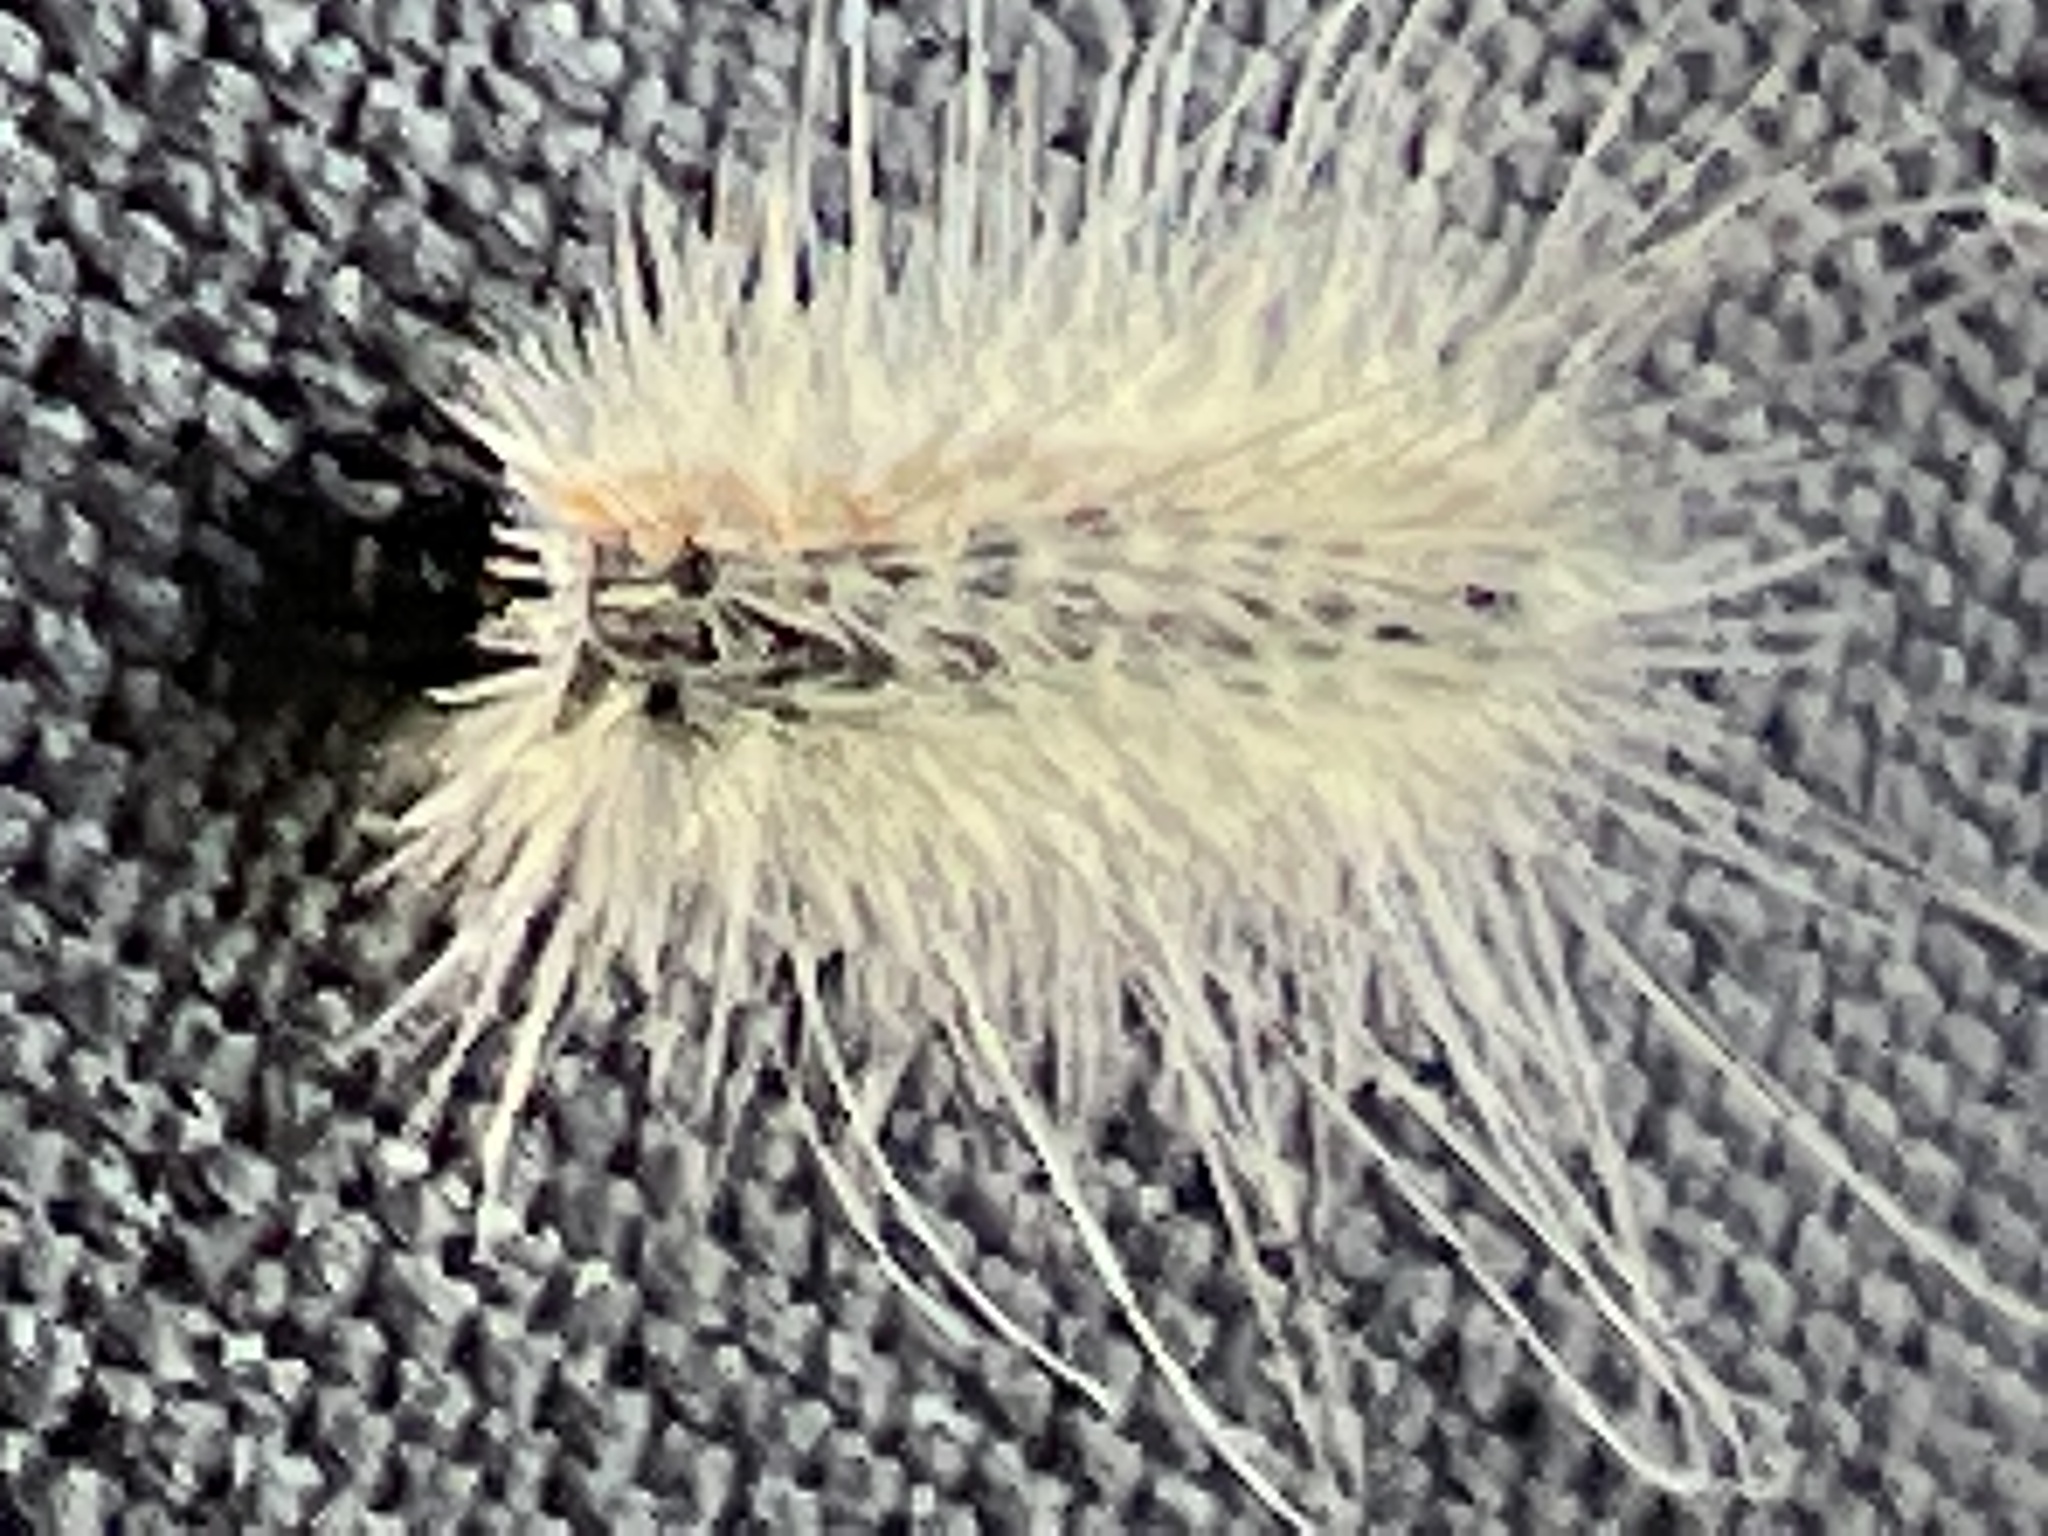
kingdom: Animalia
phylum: Arthropoda
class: Insecta
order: Lepidoptera
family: Erebidae
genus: Hyphantria
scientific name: Hyphantria cunea
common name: American white moth
